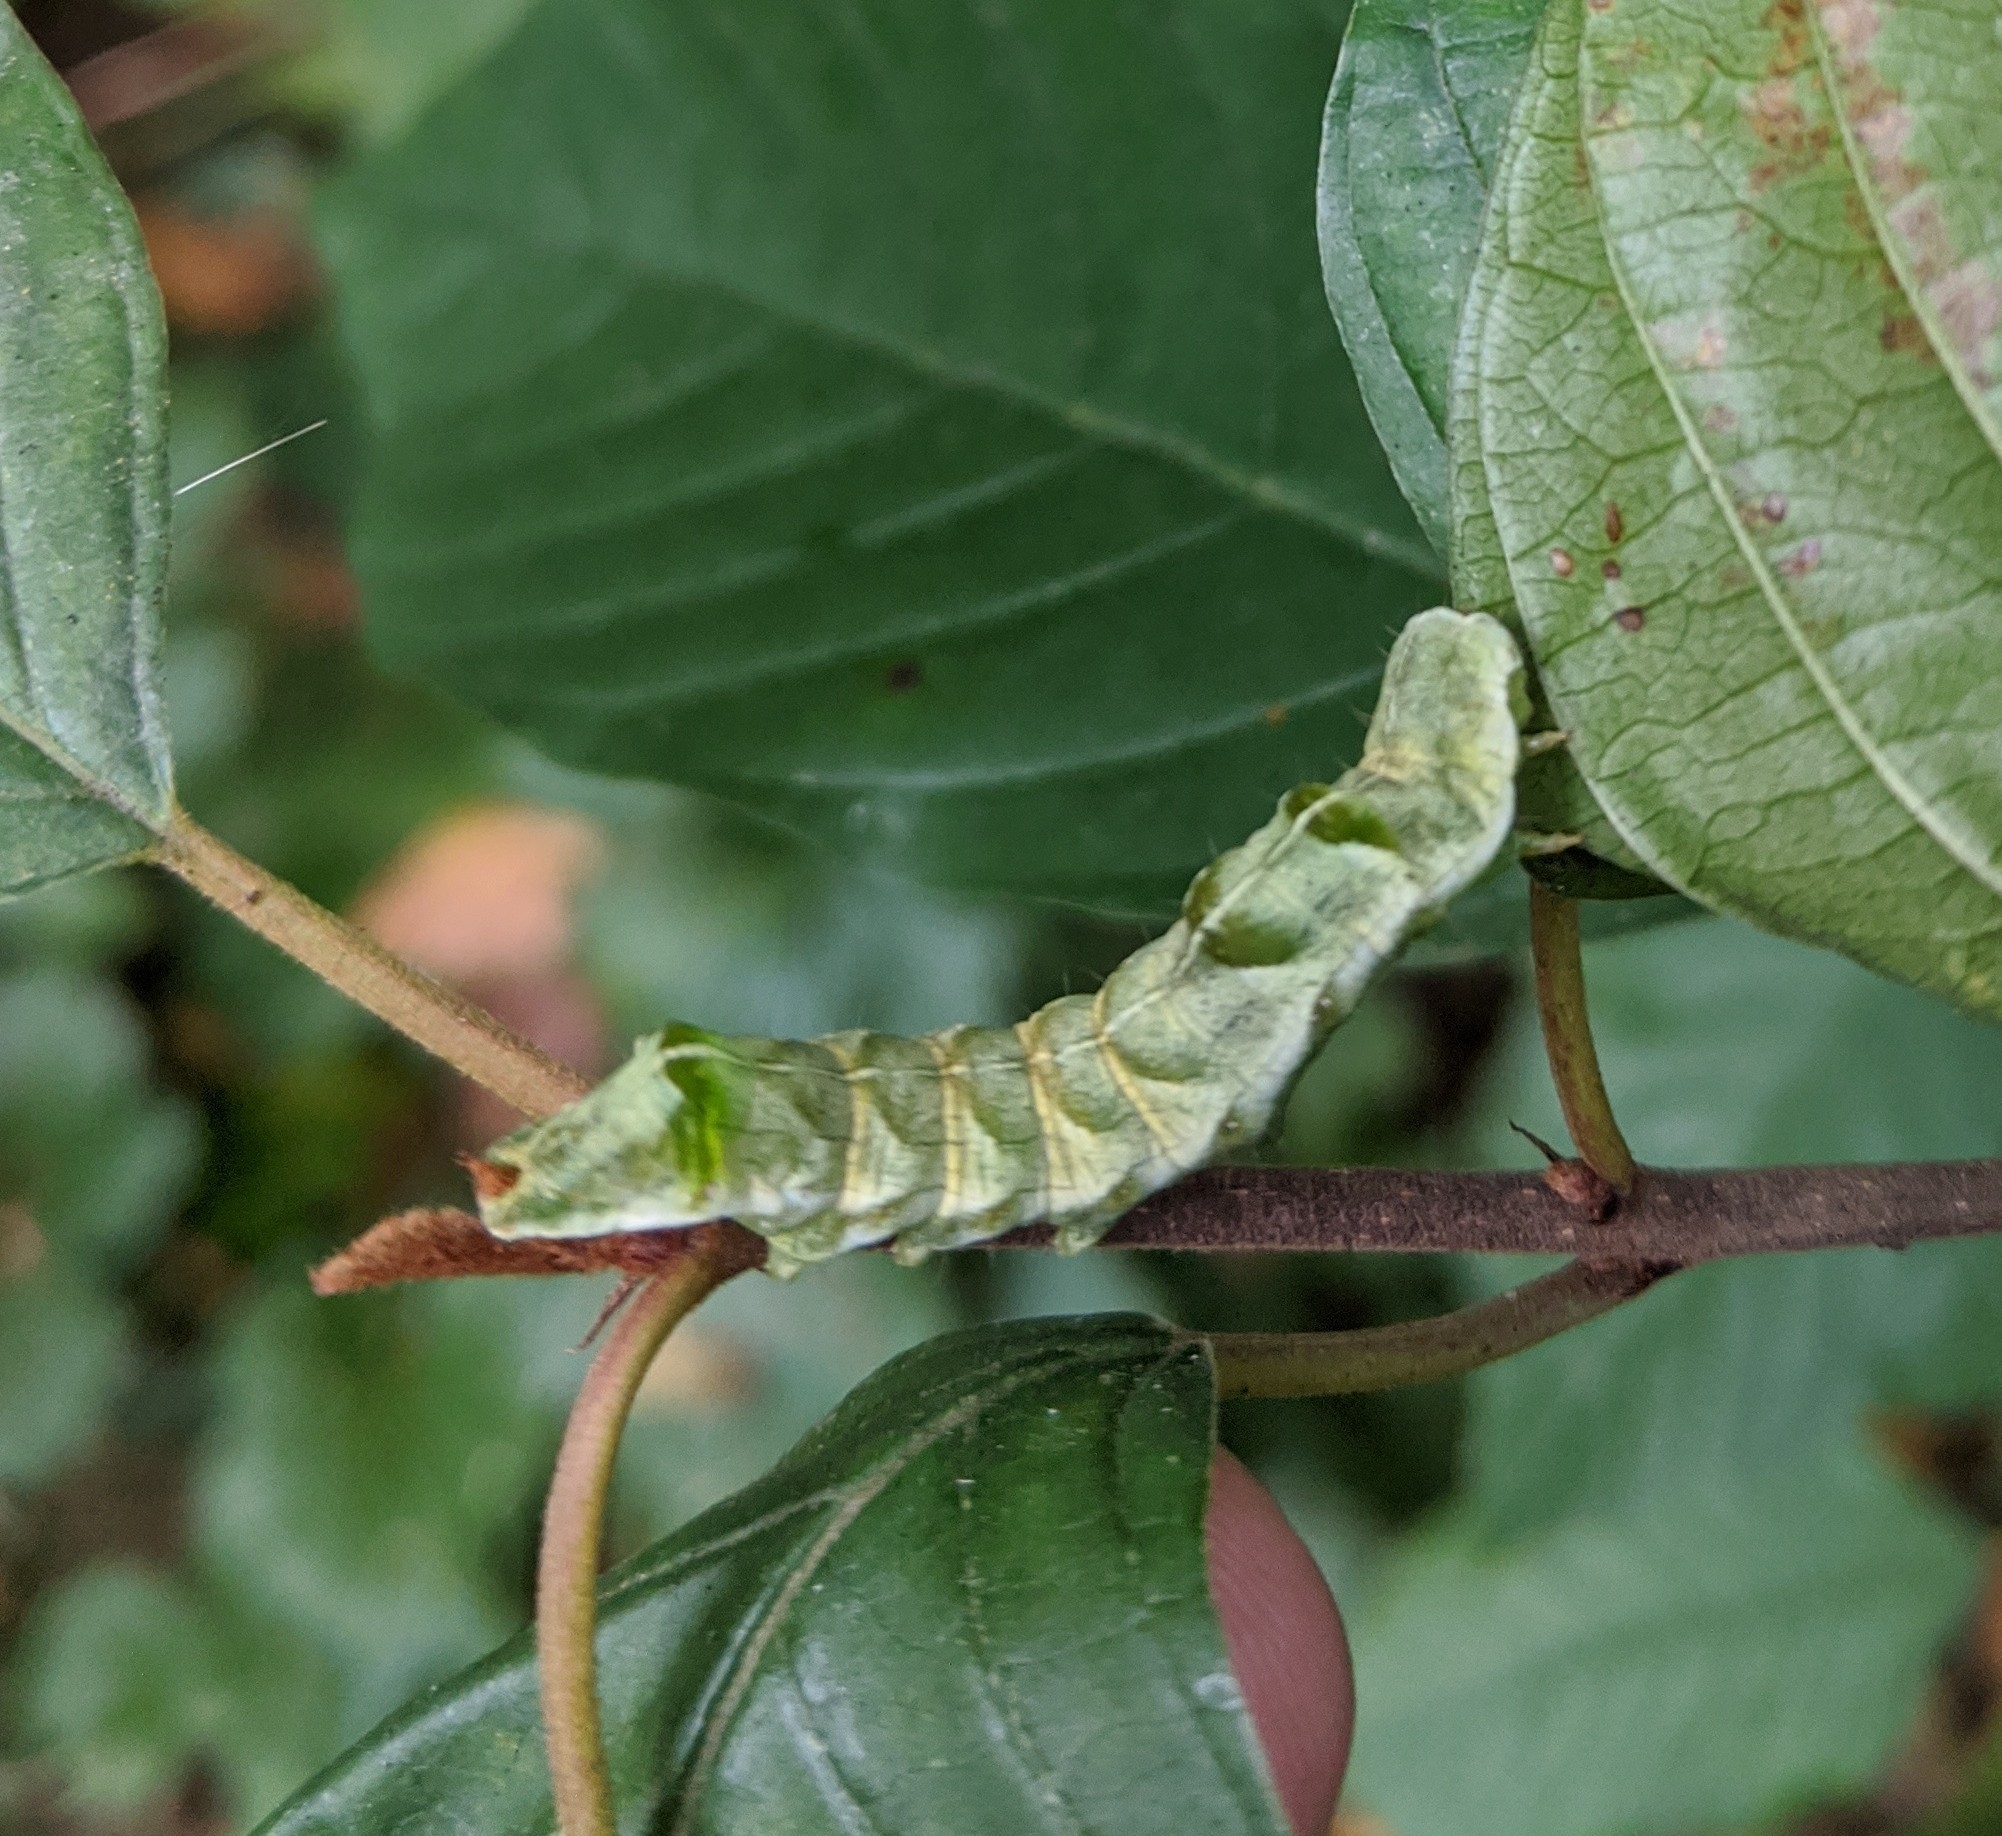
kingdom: Animalia
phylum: Arthropoda
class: Insecta
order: Lepidoptera
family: Noctuidae
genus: Melanchra
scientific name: Melanchra persicariae
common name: Dot moth
